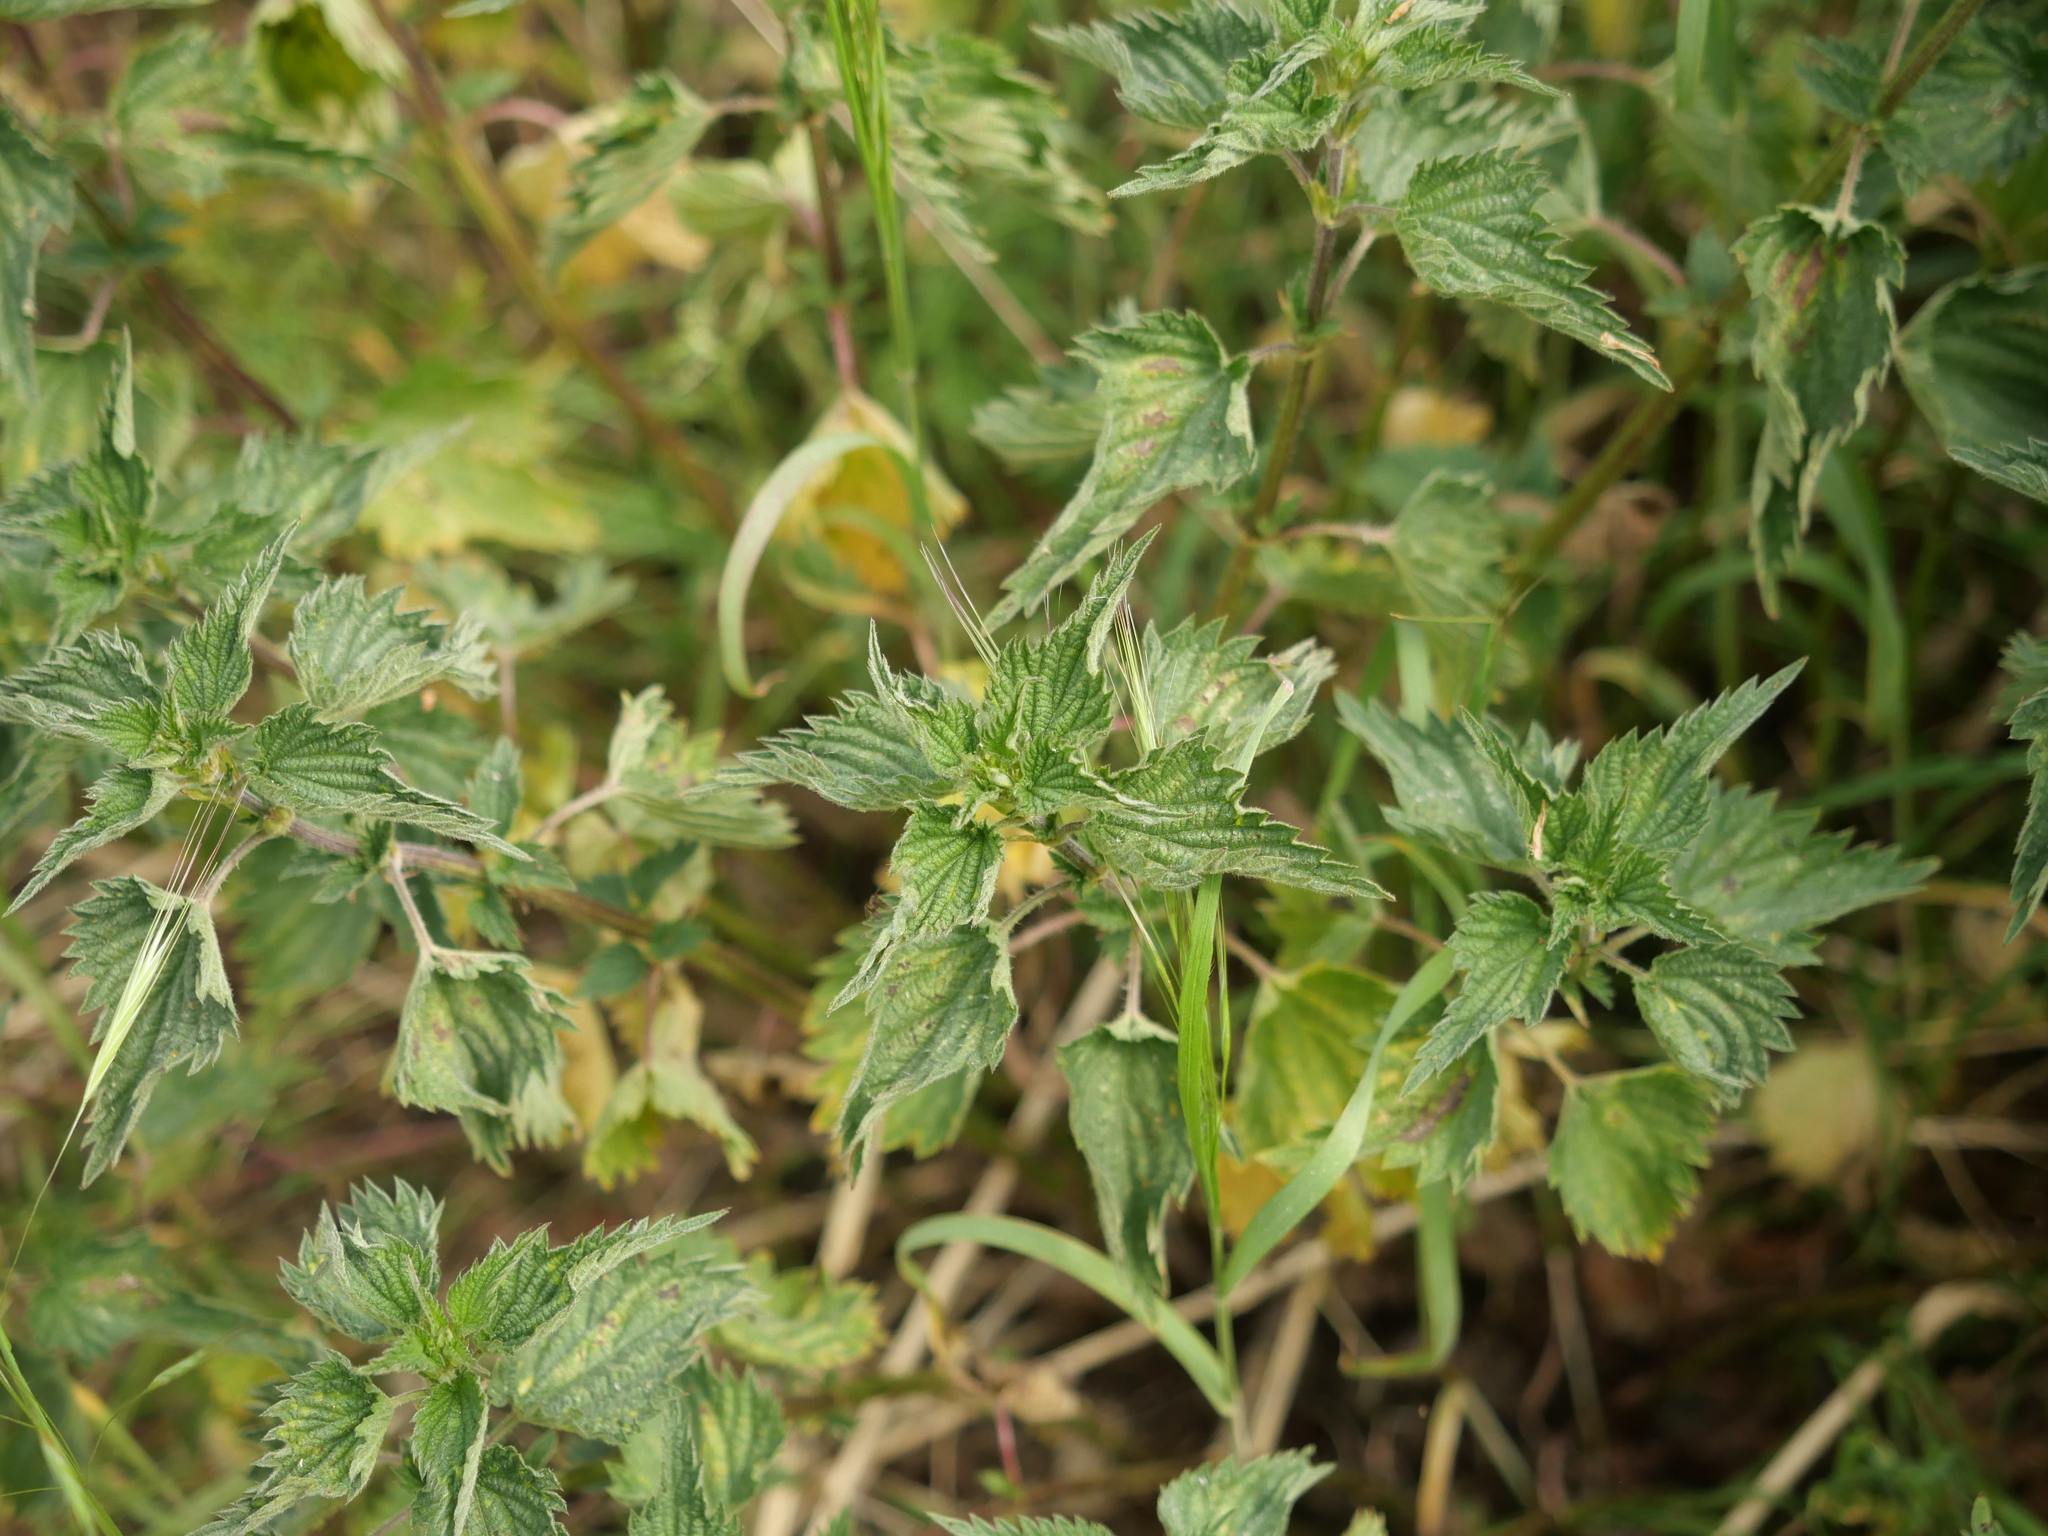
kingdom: Plantae
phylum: Tracheophyta
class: Magnoliopsida
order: Rosales
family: Urticaceae
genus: Urtica
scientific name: Urtica dioica
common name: Common nettle
